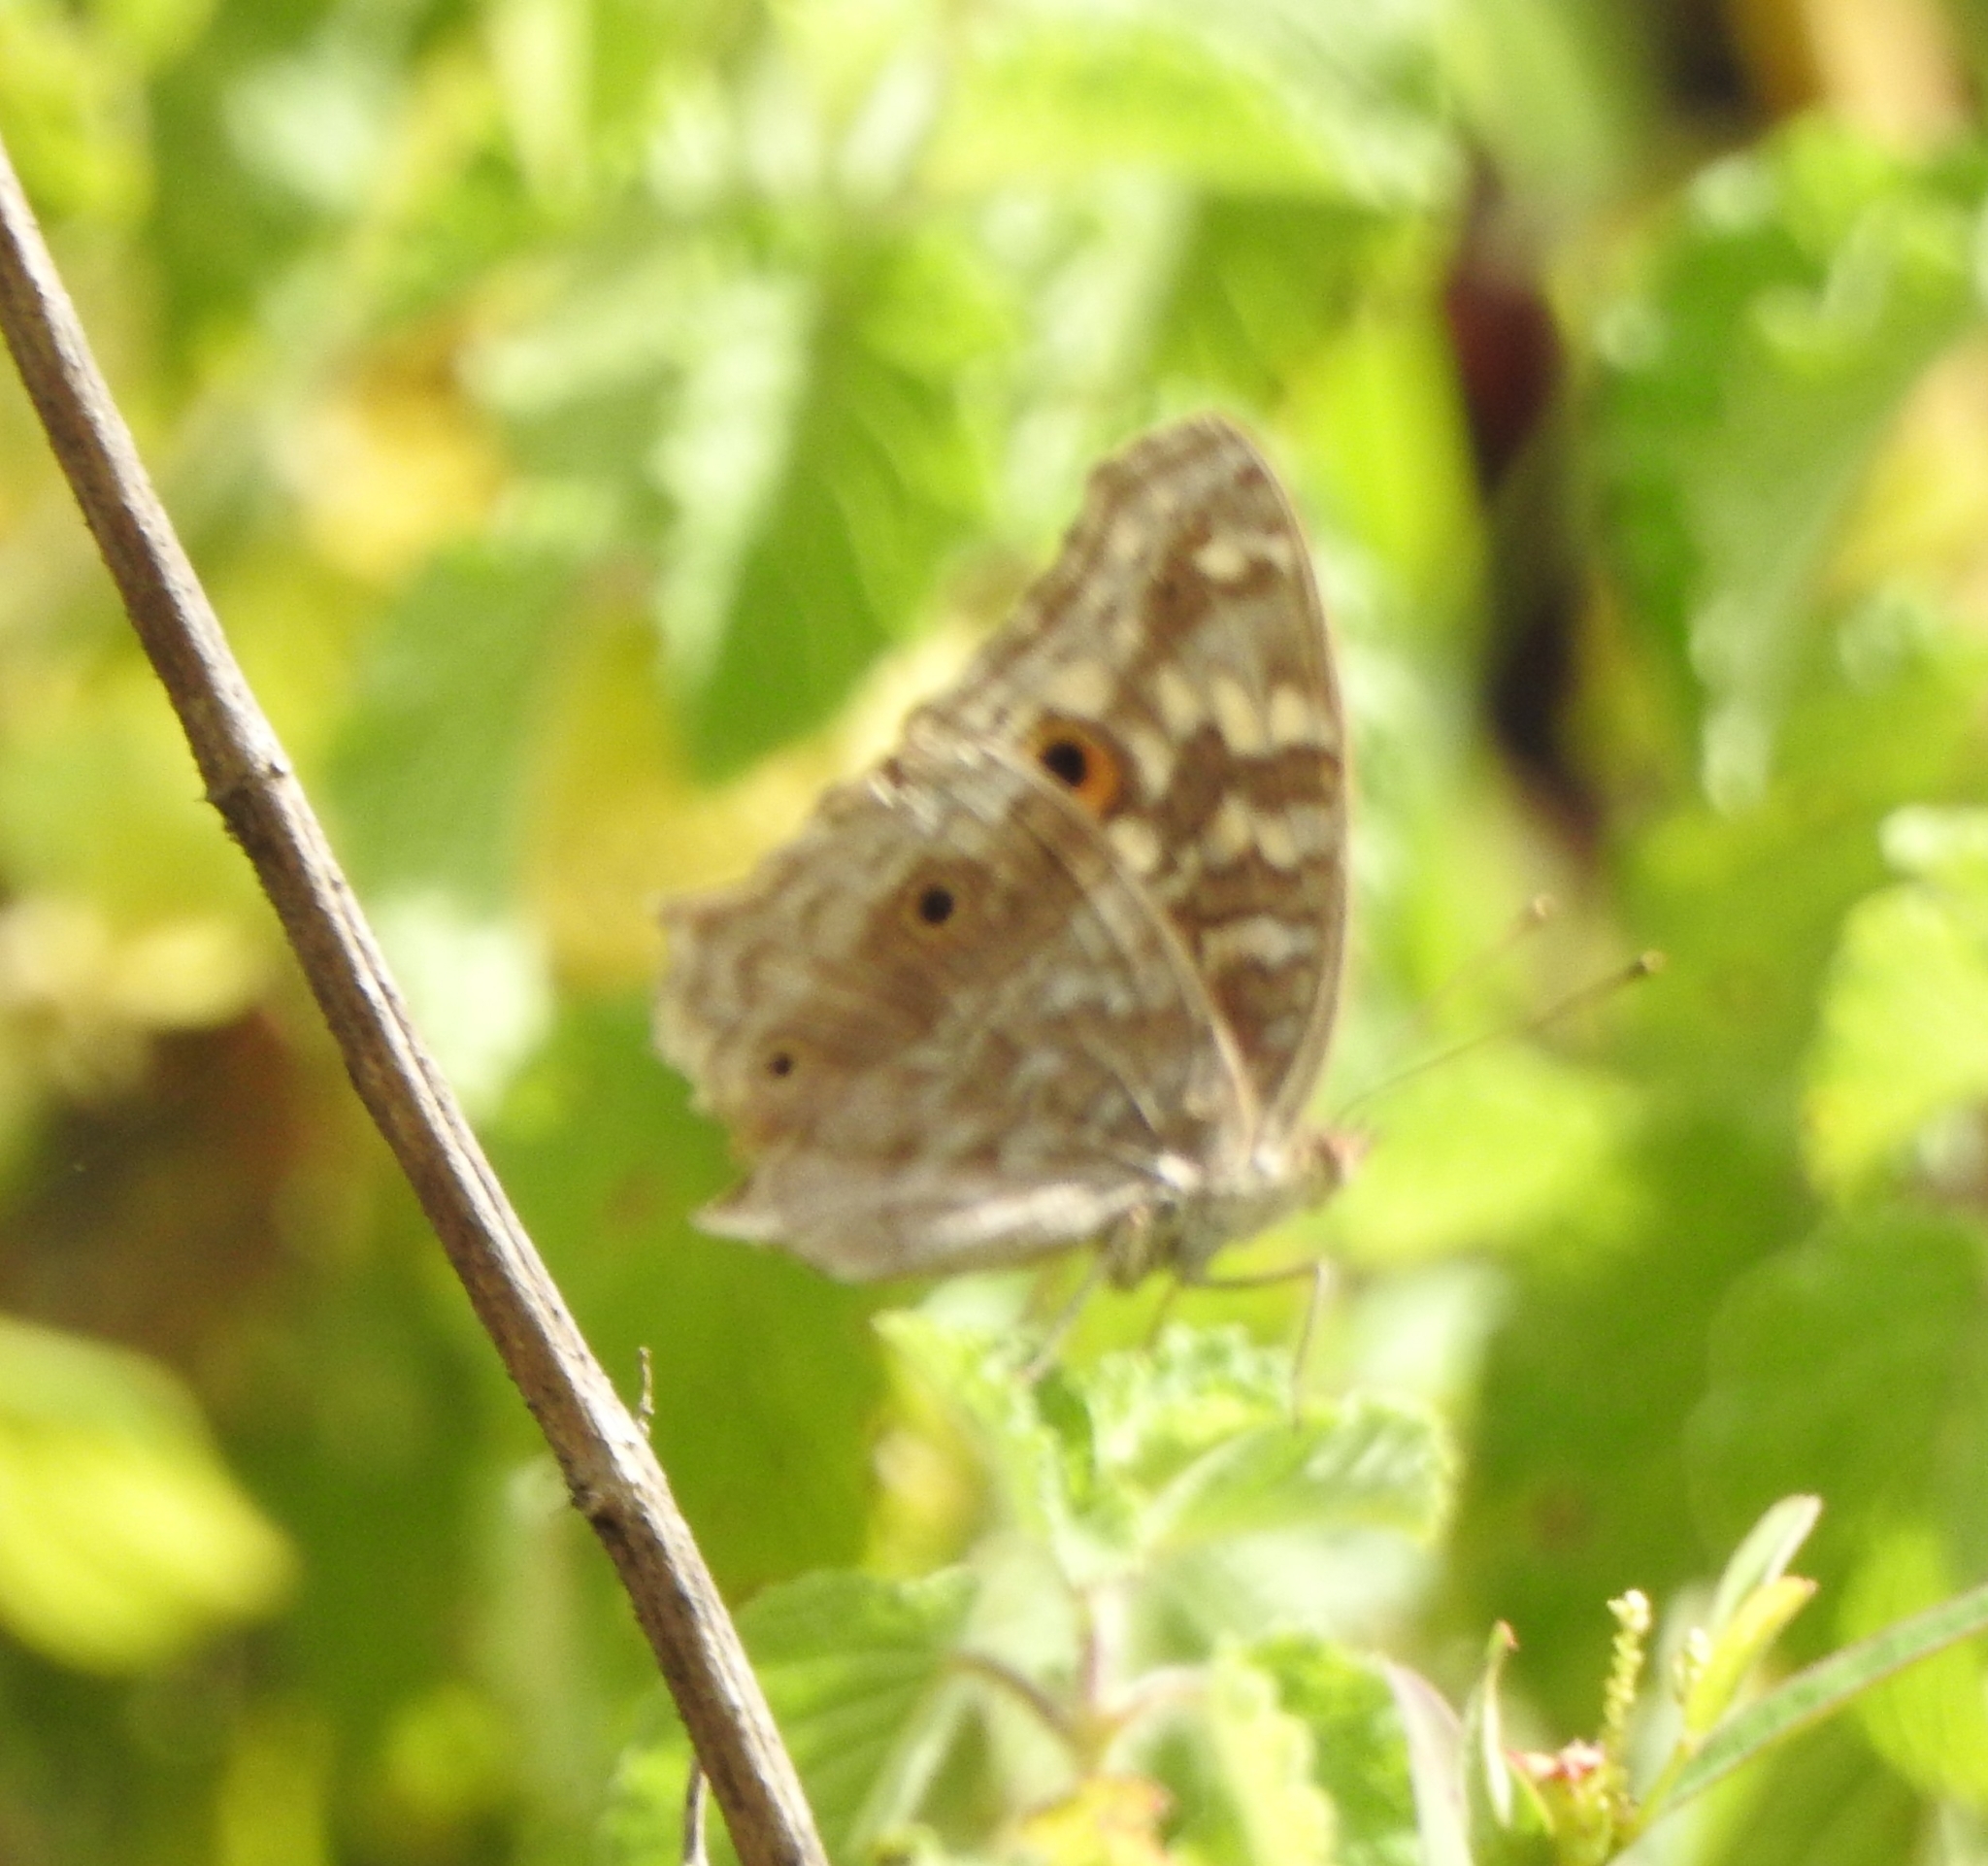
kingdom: Animalia
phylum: Arthropoda
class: Insecta
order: Lepidoptera
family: Nymphalidae
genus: Junonia
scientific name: Junonia lemonias
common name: Lemon pansy
